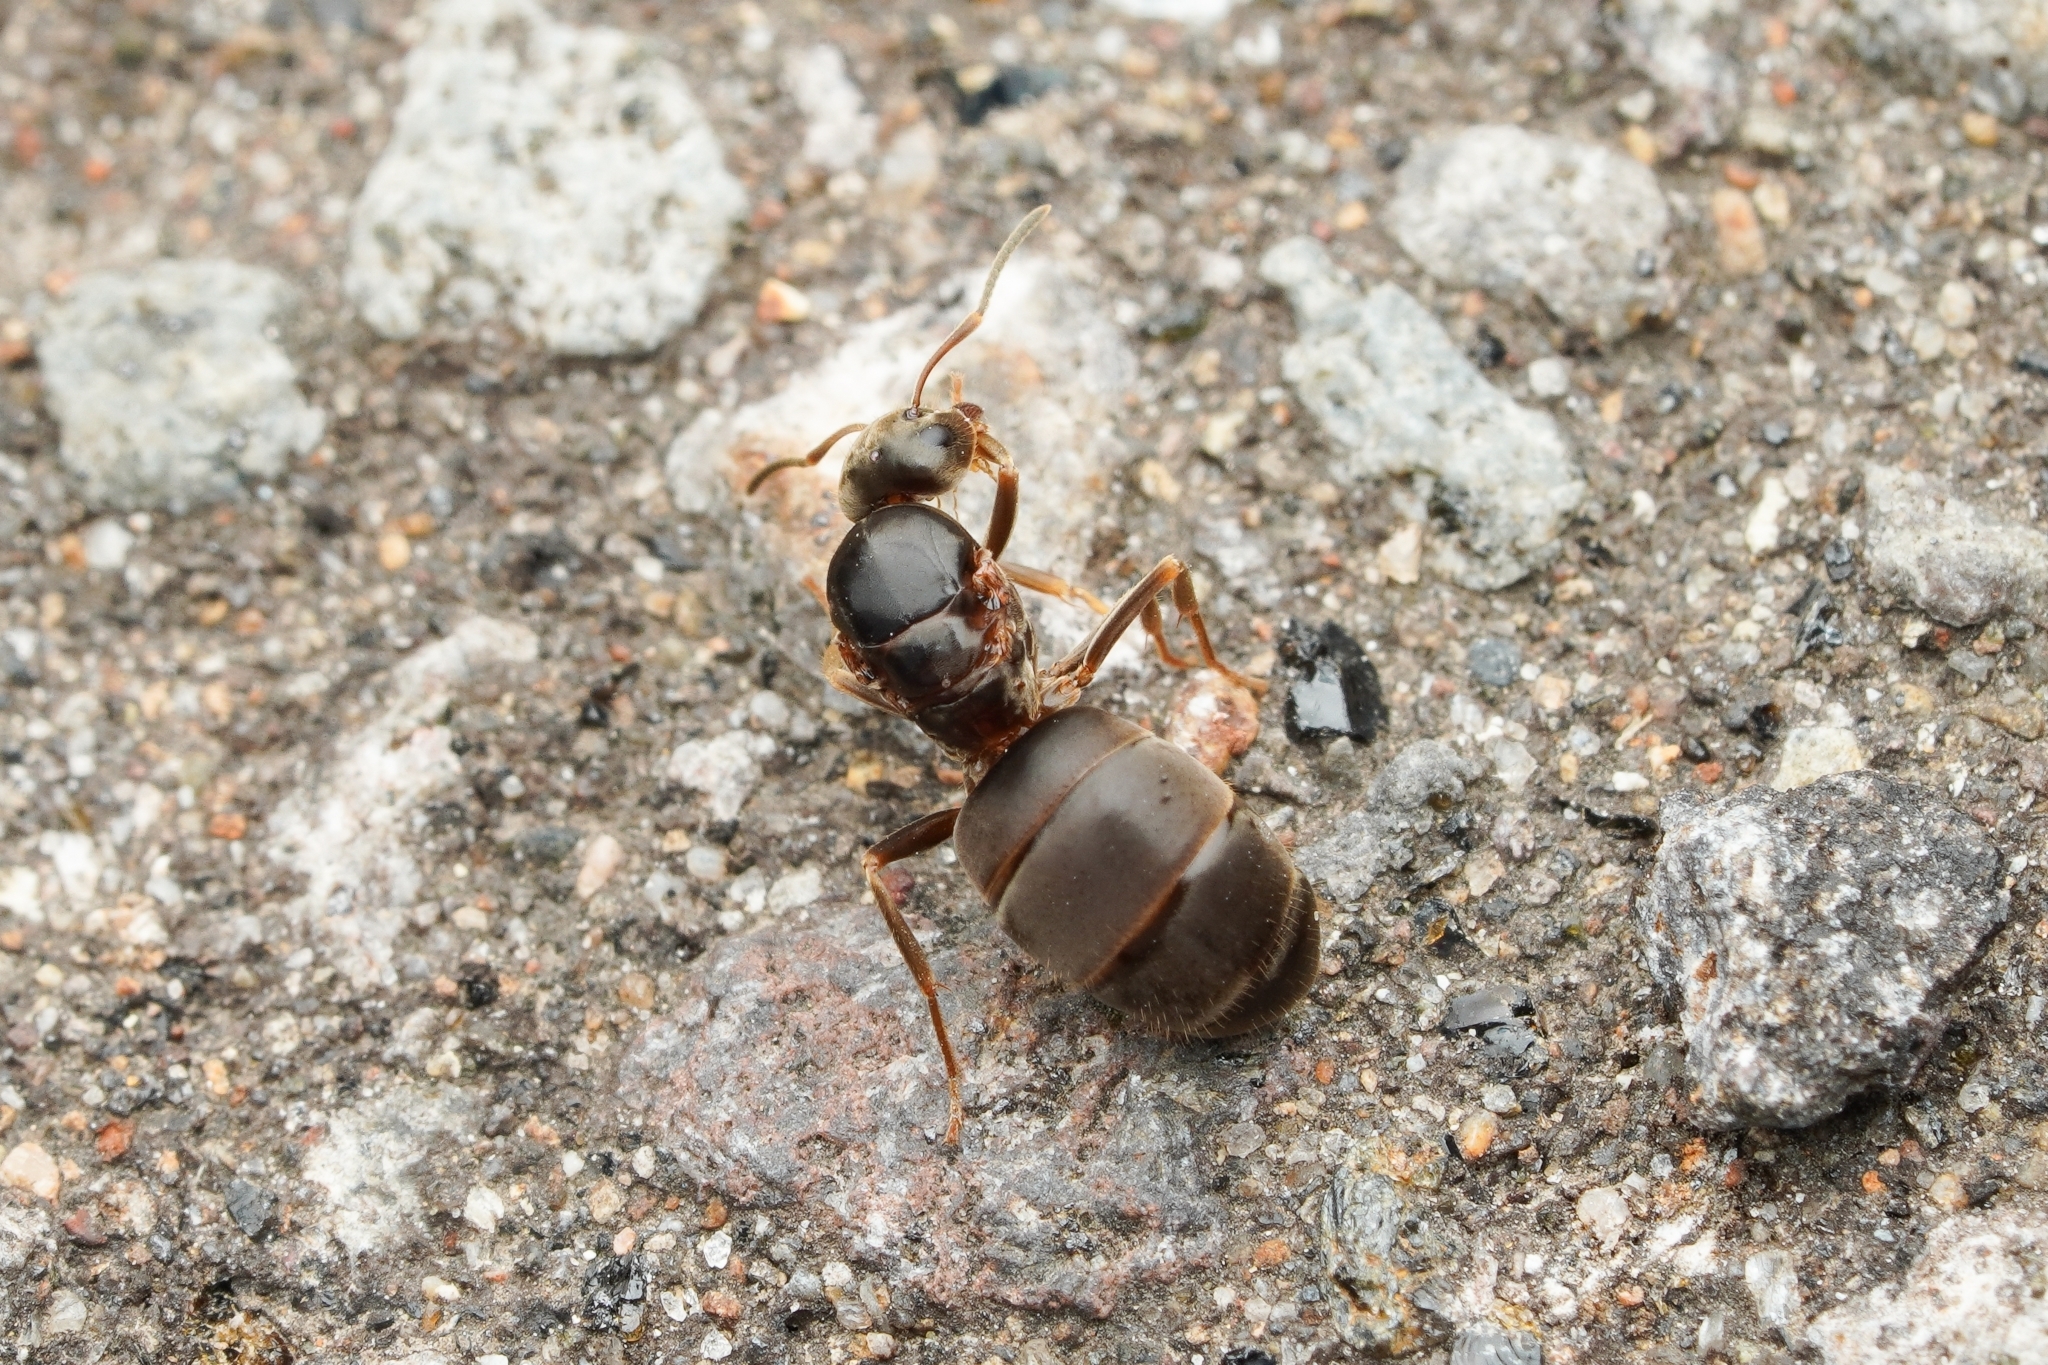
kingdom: Animalia
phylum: Arthropoda
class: Insecta
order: Hymenoptera
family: Formicidae
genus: Lasius
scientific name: Lasius japonicus
